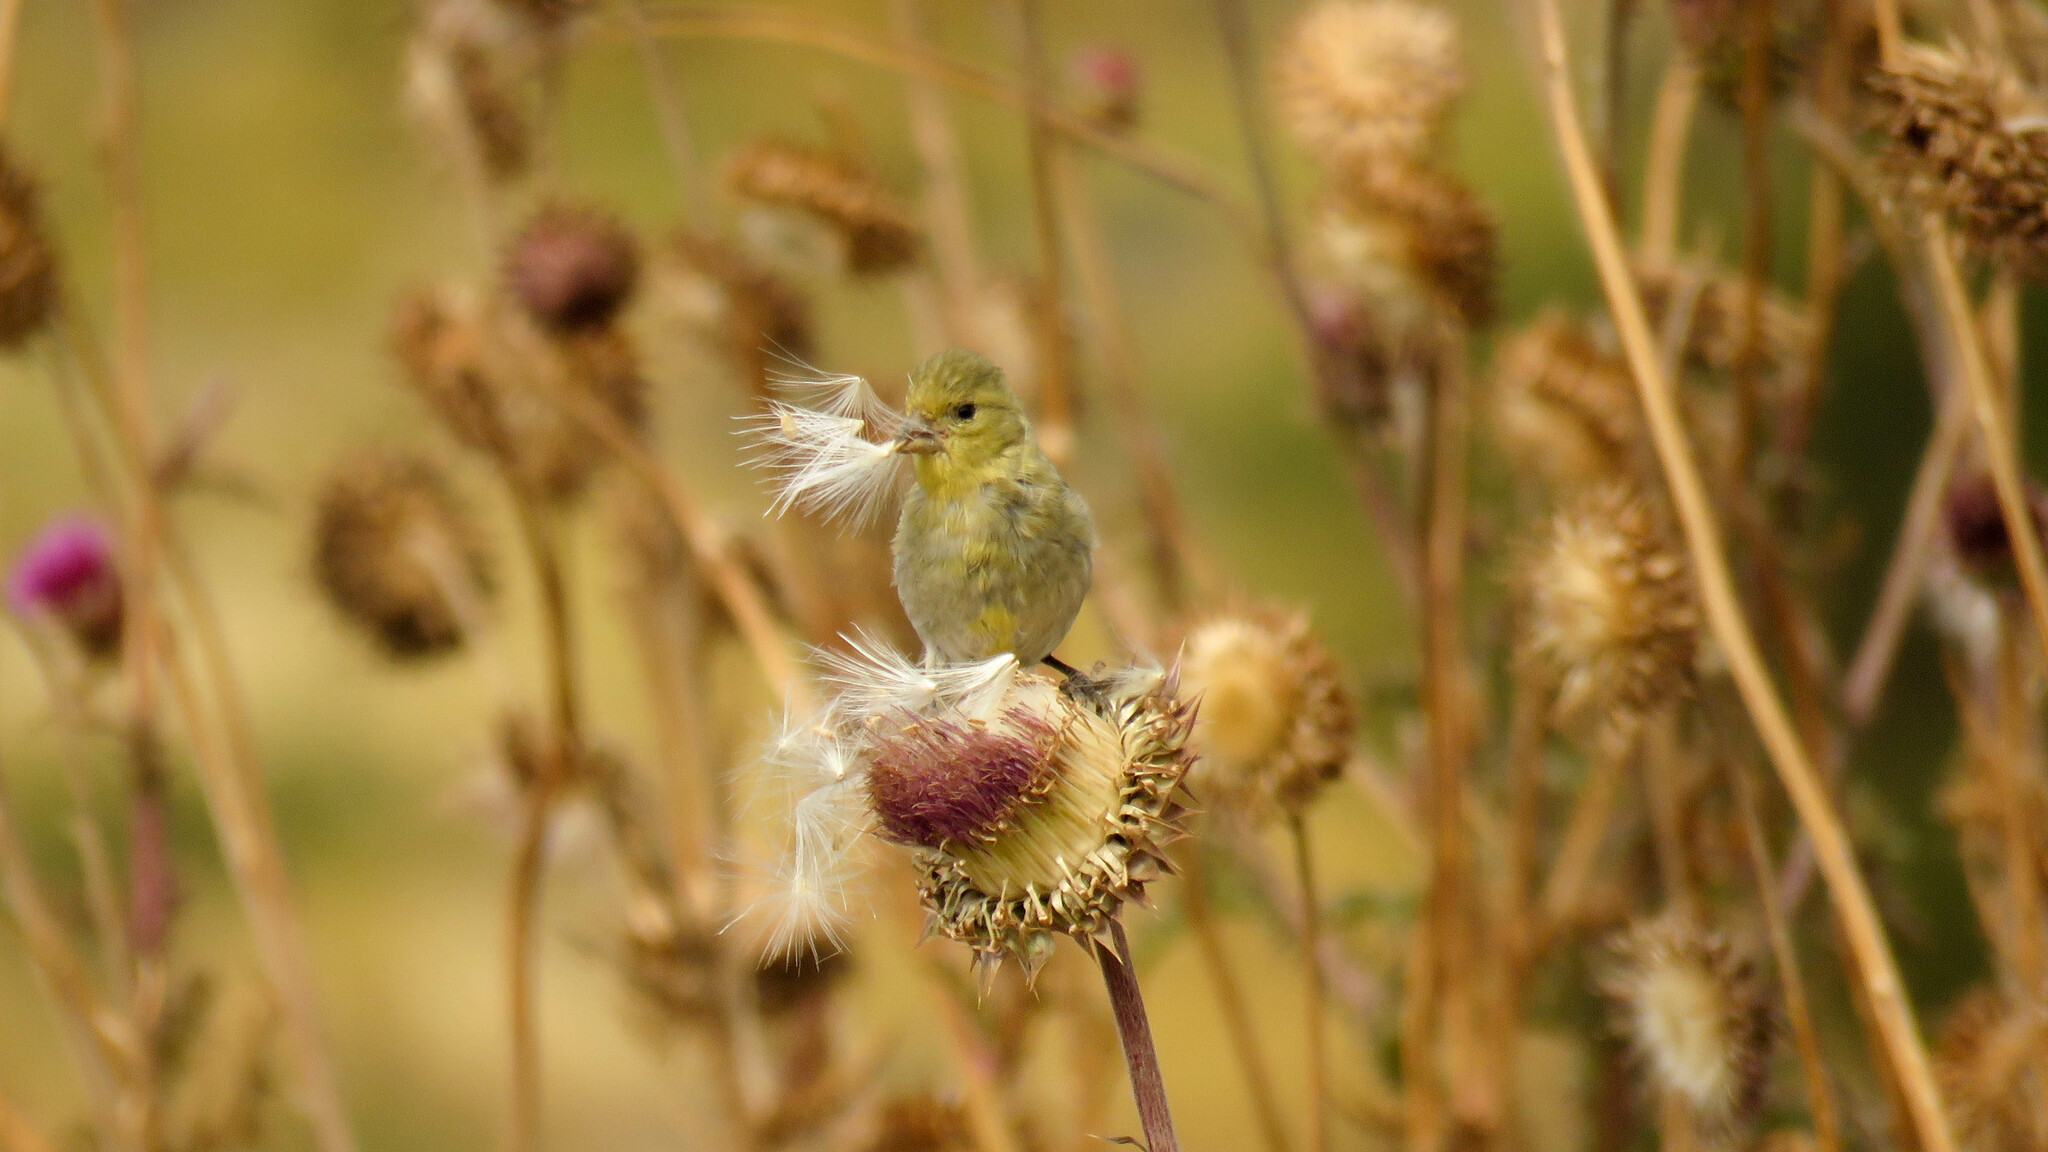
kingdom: Animalia
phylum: Chordata
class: Aves
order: Passeriformes
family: Fringillidae
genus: Spinus
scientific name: Spinus barbatus
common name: Black-chinned siskin
